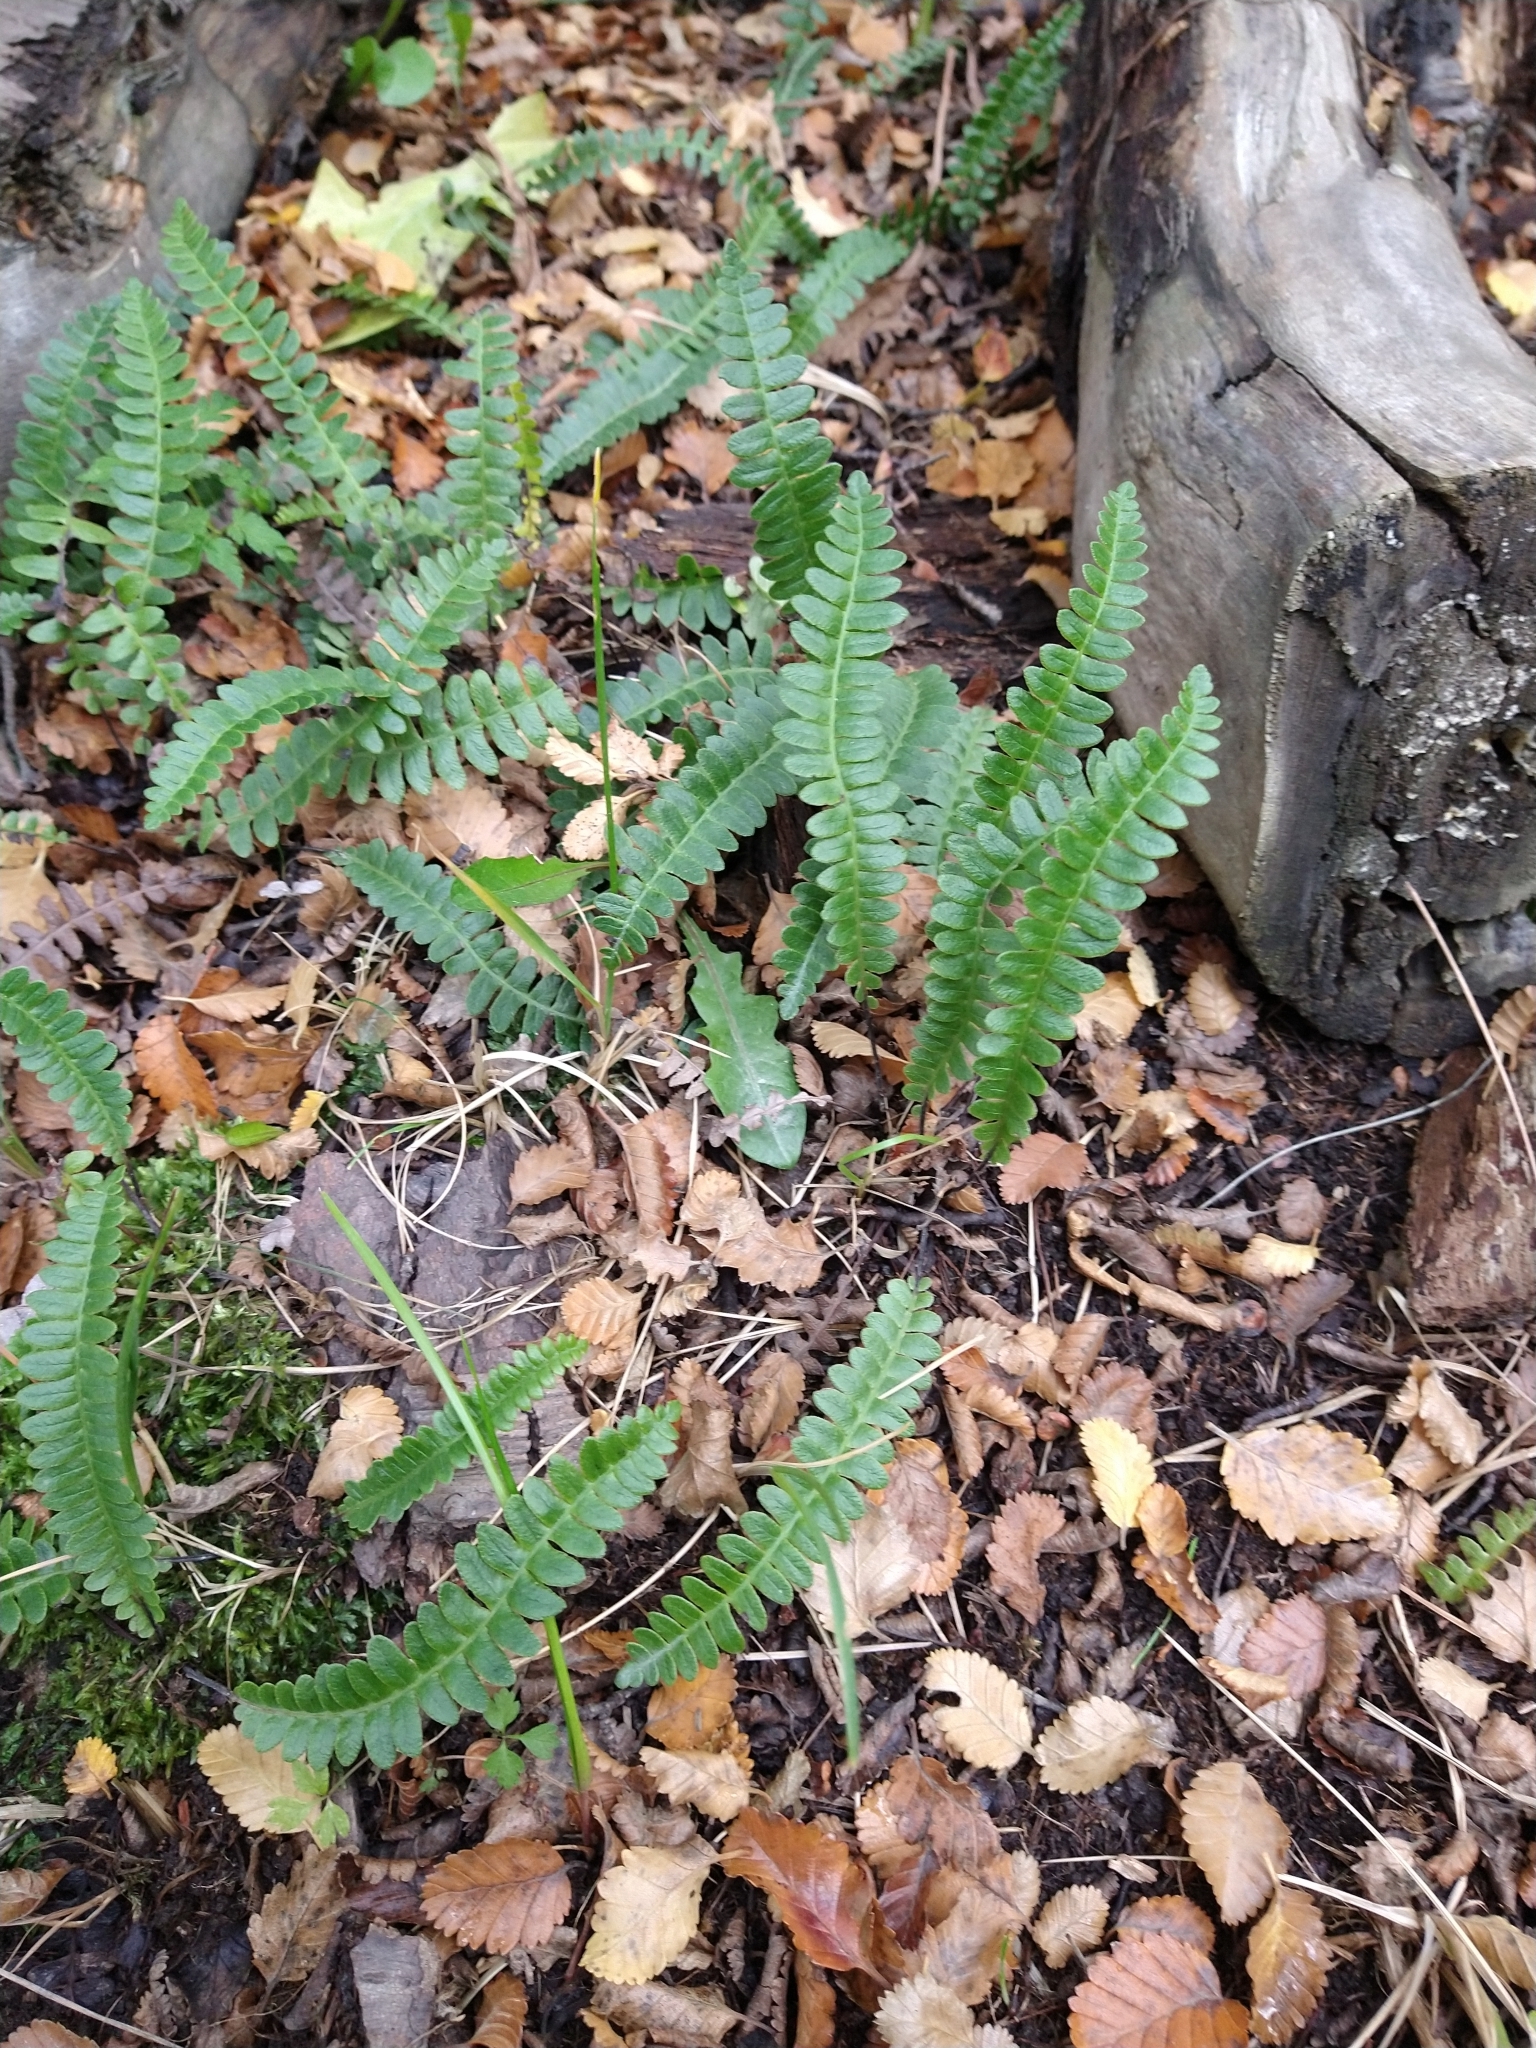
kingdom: Plantae
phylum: Tracheophyta
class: Polypodiopsida
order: Polypodiales
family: Blechnaceae
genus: Austroblechnum
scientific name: Austroblechnum penna-marina
